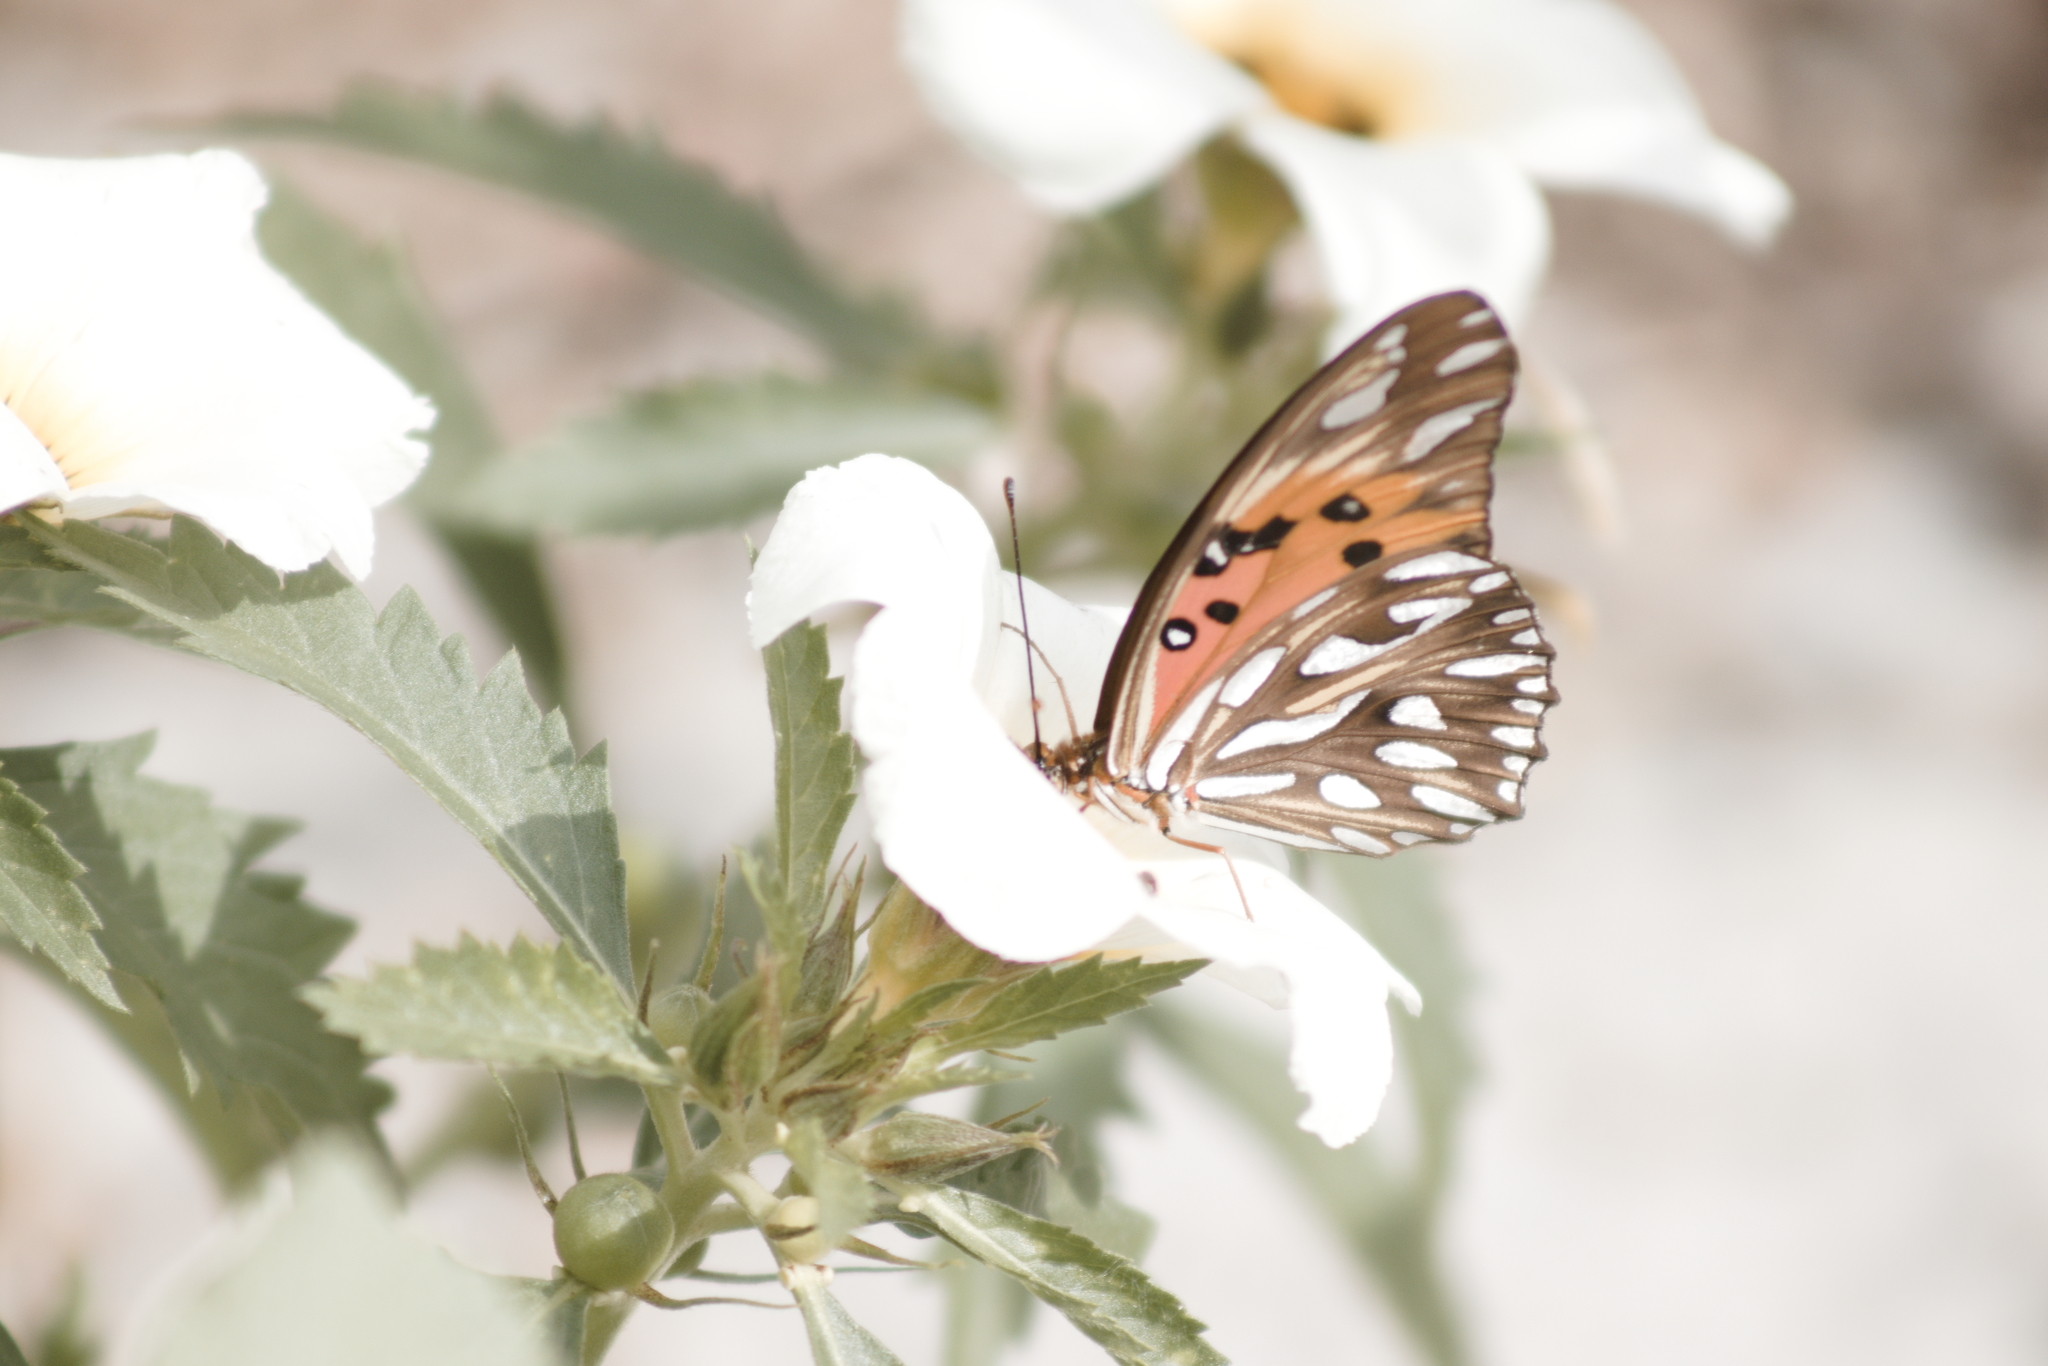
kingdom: Animalia
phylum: Arthropoda
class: Insecta
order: Lepidoptera
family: Nymphalidae
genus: Dione
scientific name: Dione vanillae
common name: Gulf fritillary
